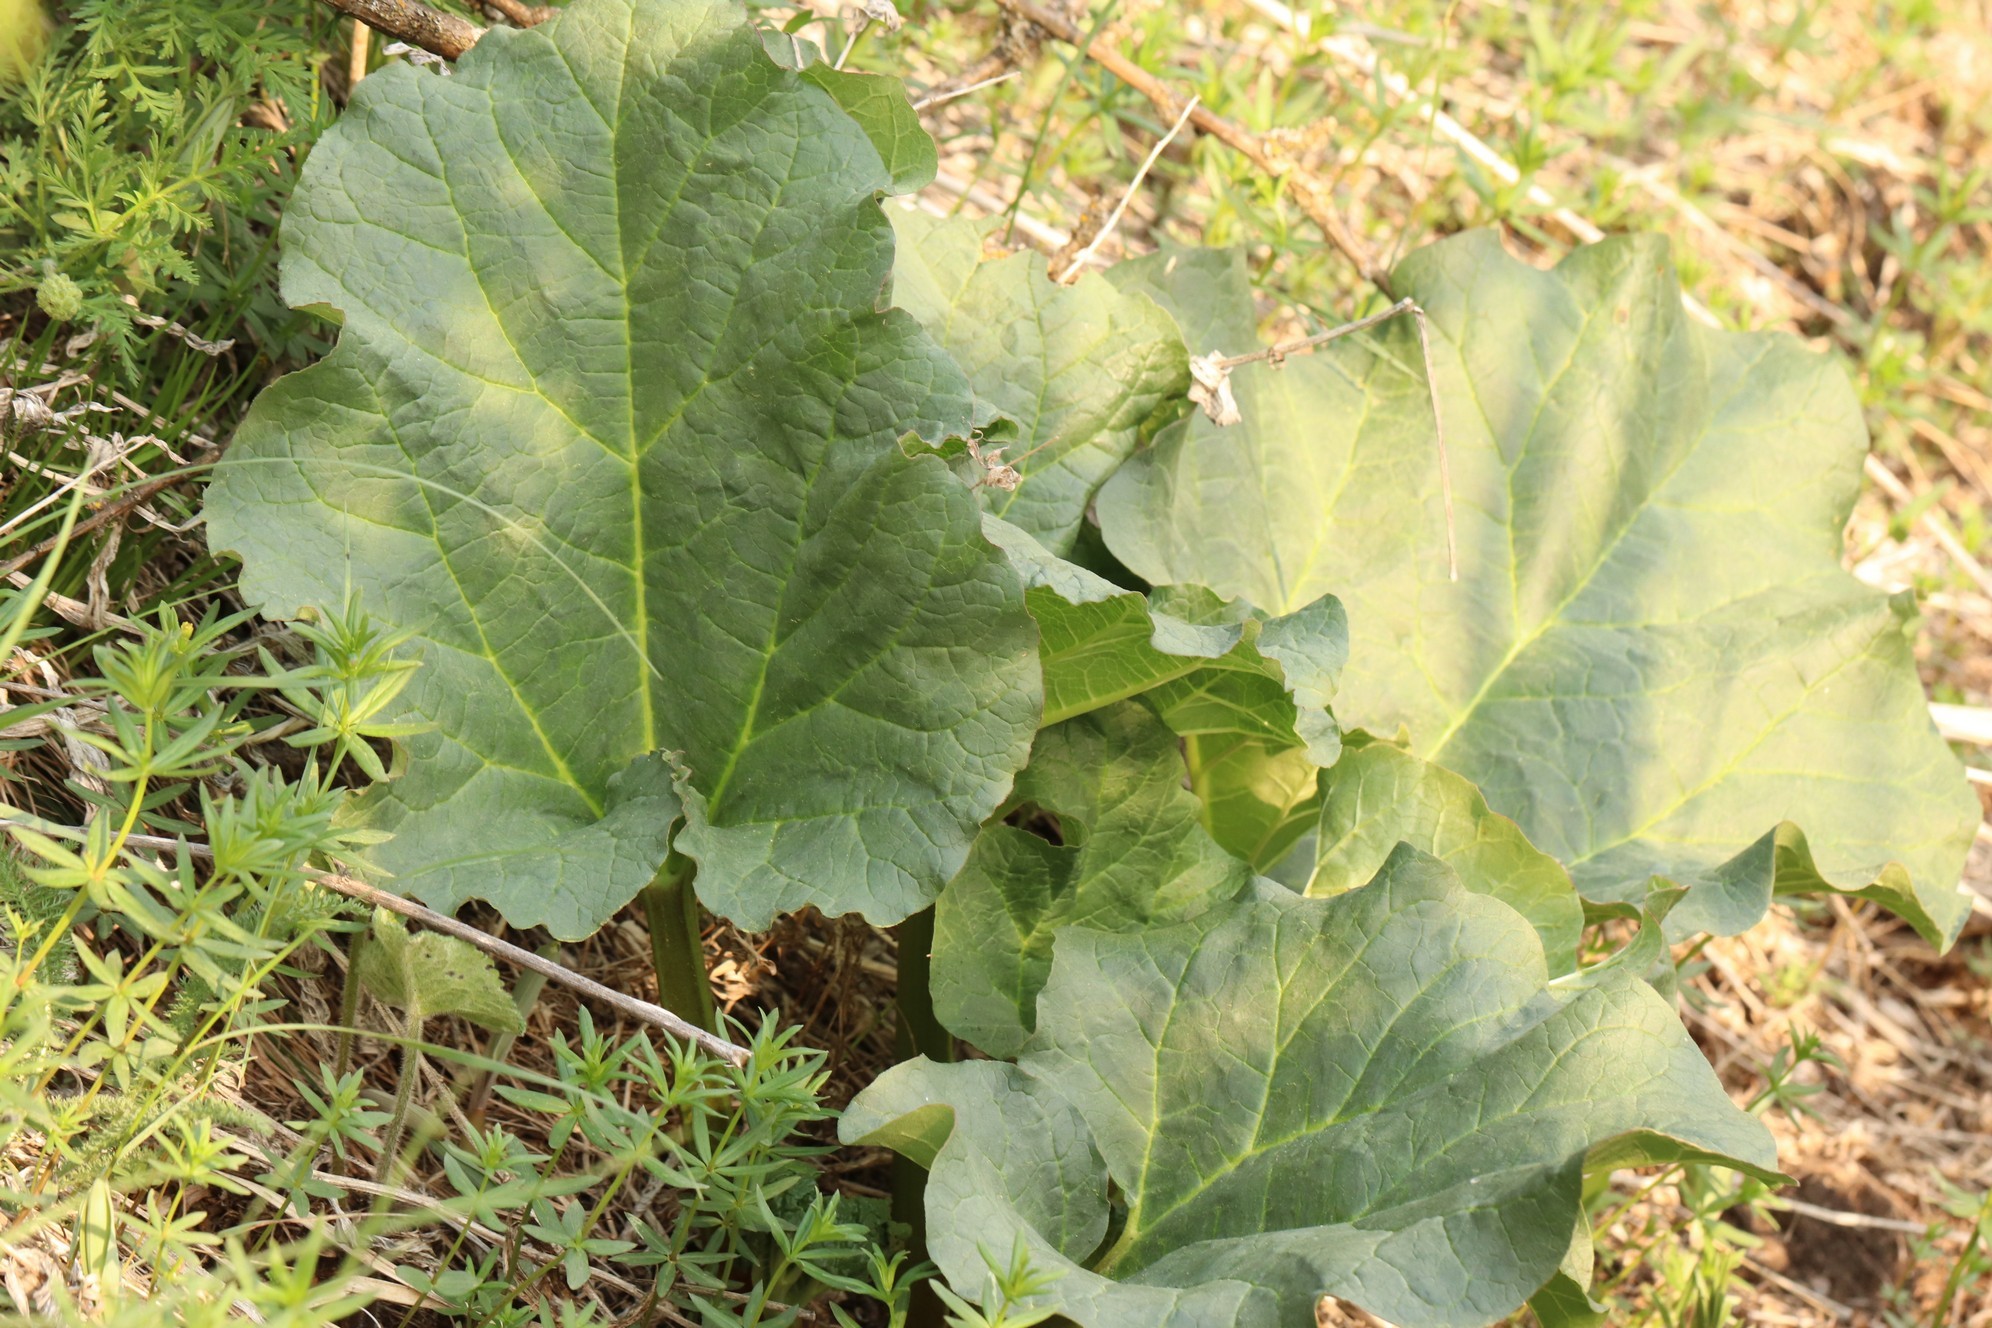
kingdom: Plantae
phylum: Tracheophyta
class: Magnoliopsida
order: Caryophyllales
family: Polygonaceae
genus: Rheum
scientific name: Rheum compactum
